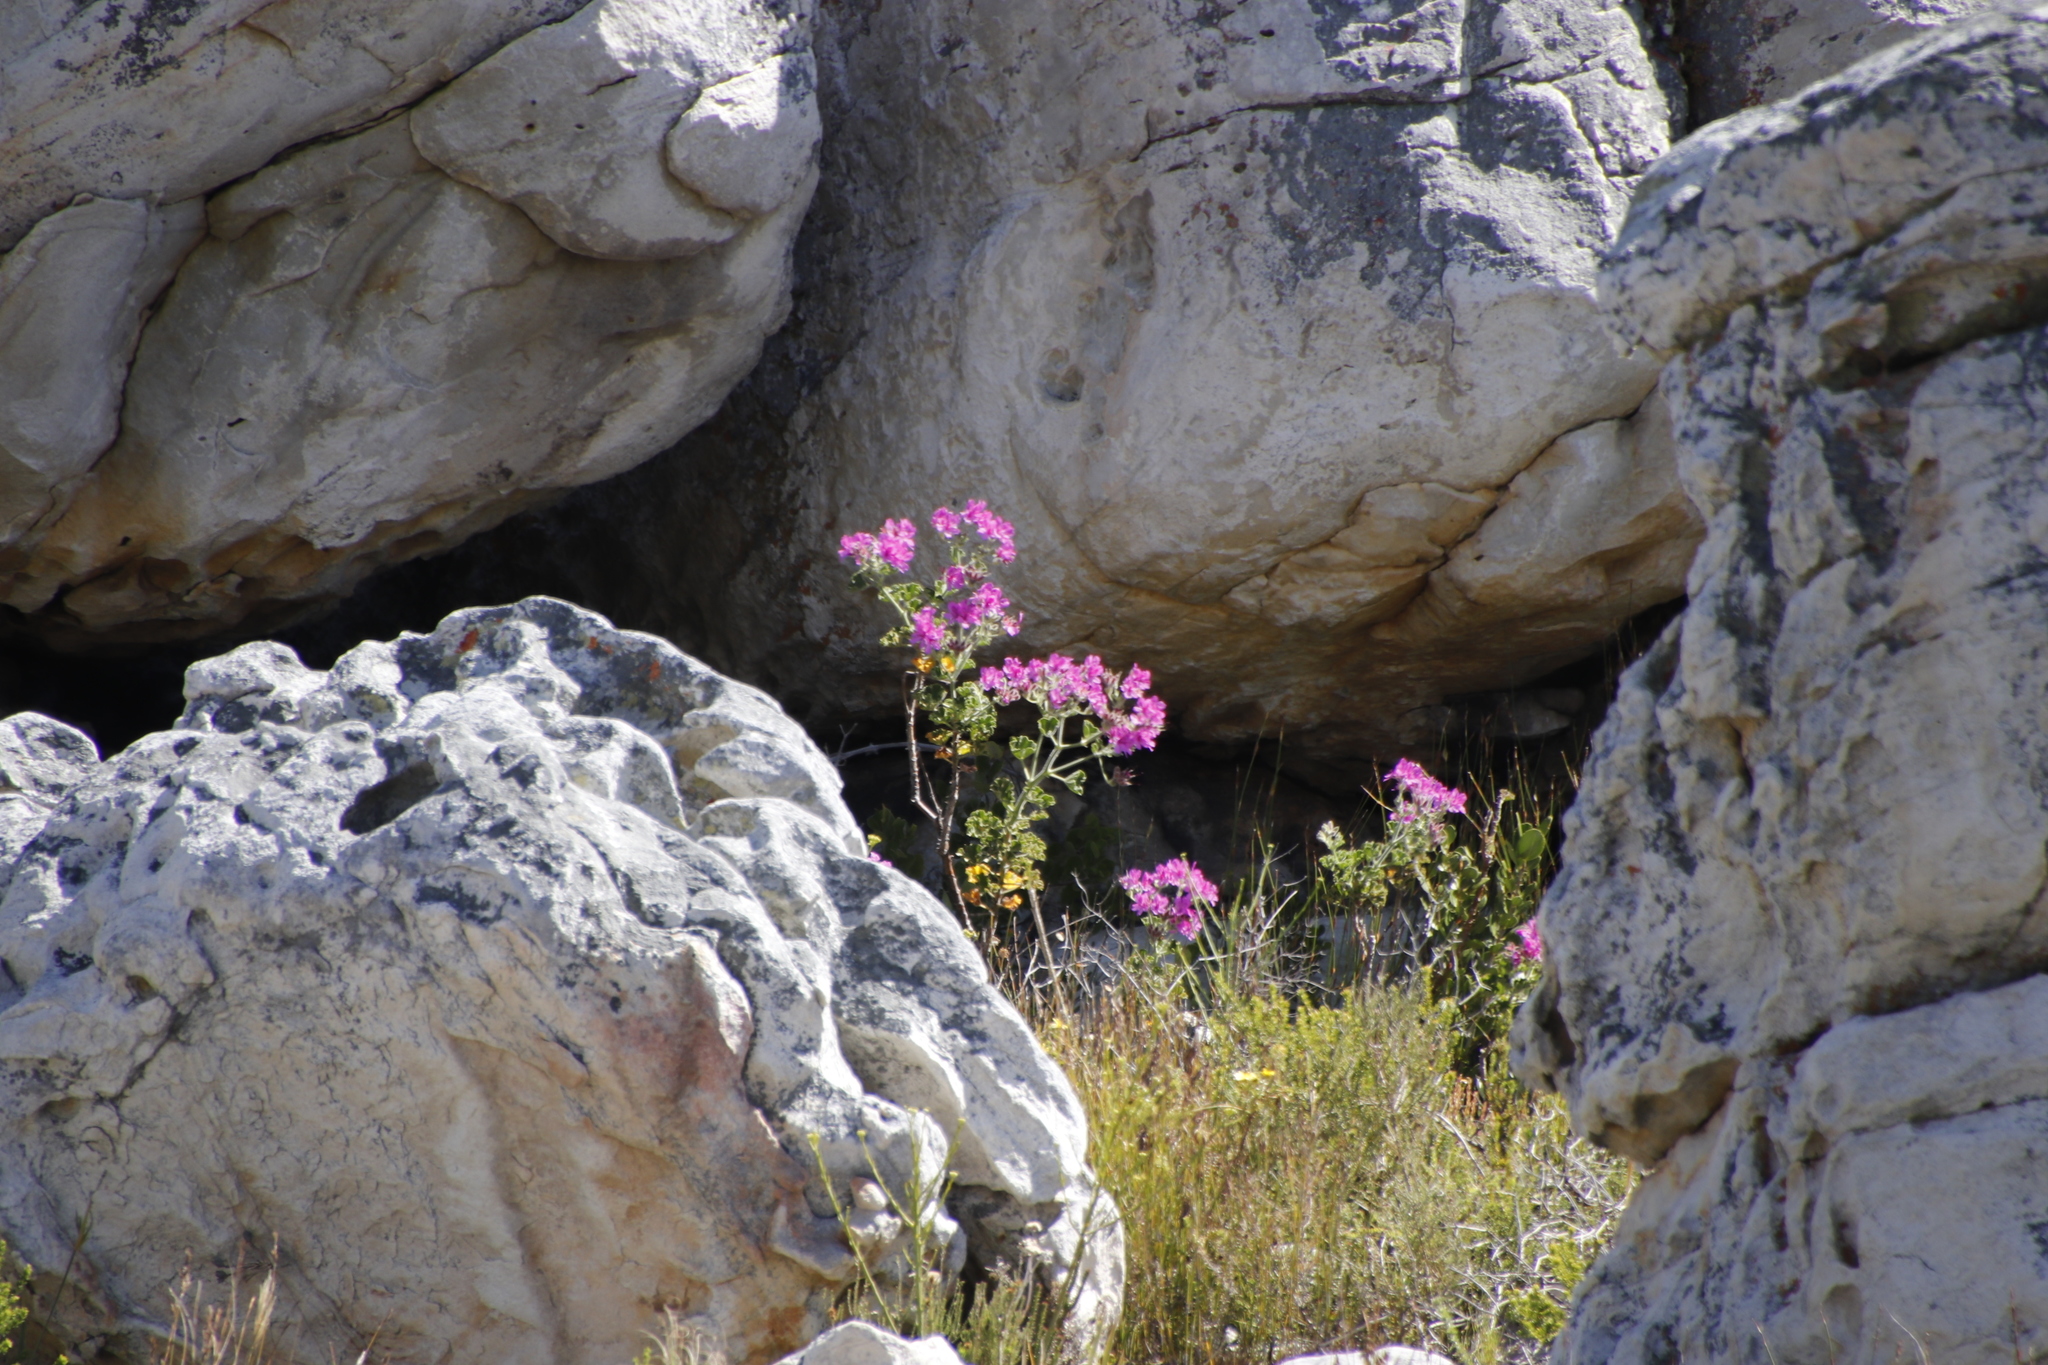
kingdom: Plantae
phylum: Tracheophyta
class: Magnoliopsida
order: Geraniales
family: Geraniaceae
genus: Pelargonium
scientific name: Pelargonium cucullatum
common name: Tree pelargonium
